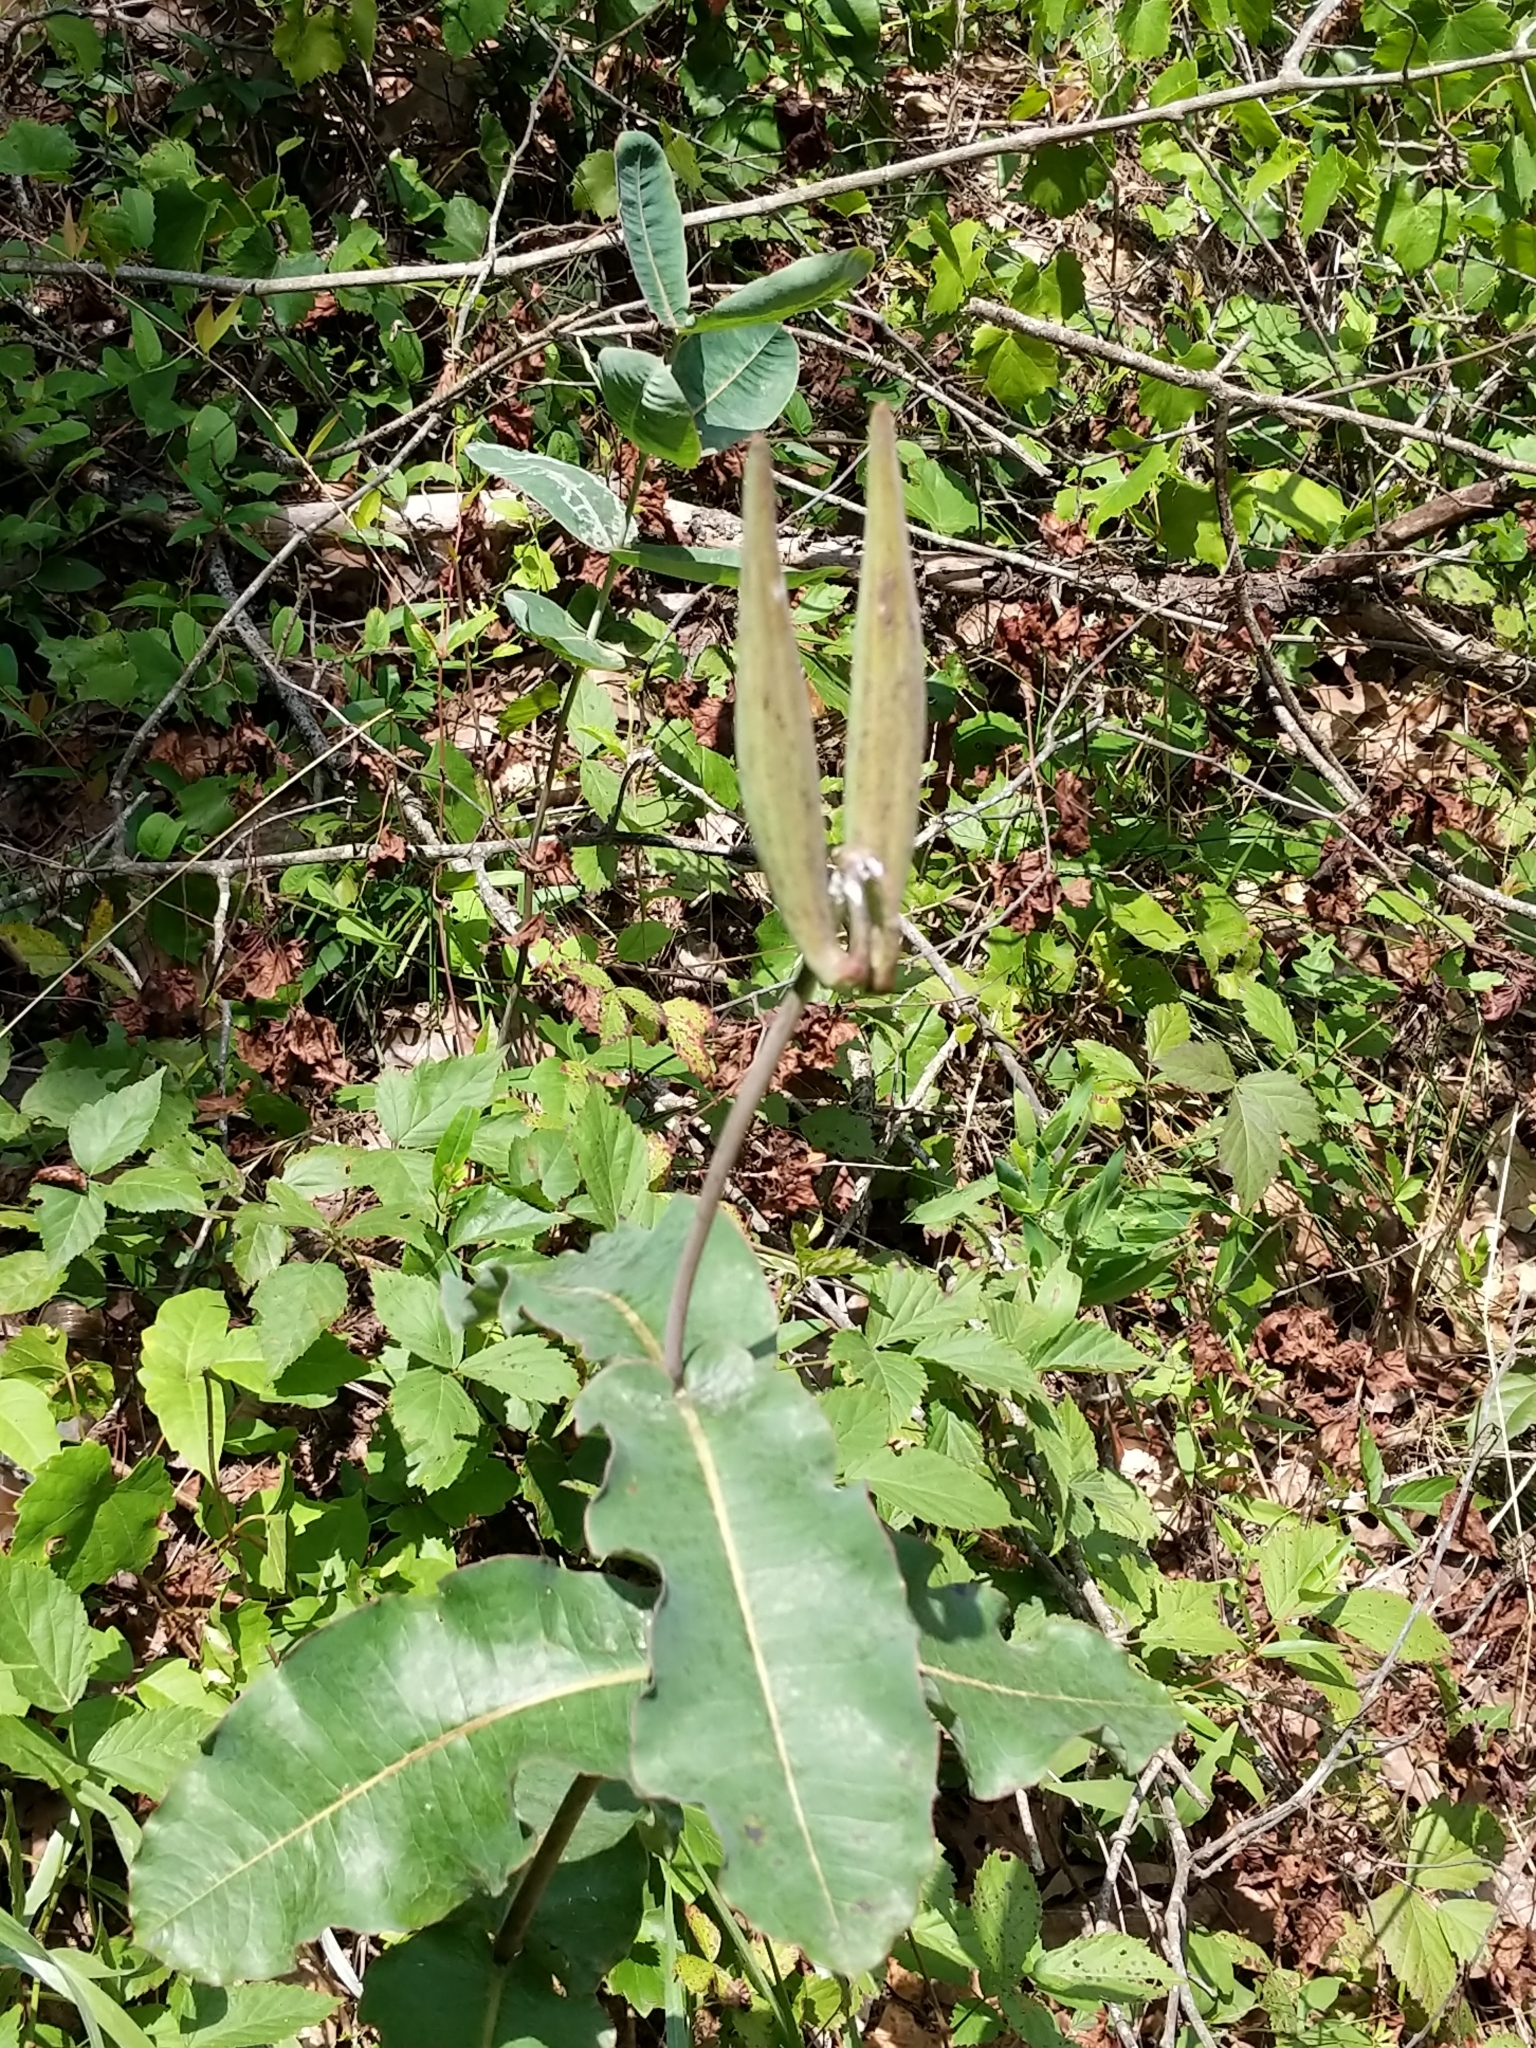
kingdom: Plantae
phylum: Tracheophyta
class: Magnoliopsida
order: Gentianales
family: Apocynaceae
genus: Asclepias
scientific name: Asclepias amplexicaulis
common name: Blunt-leaf milkweed
